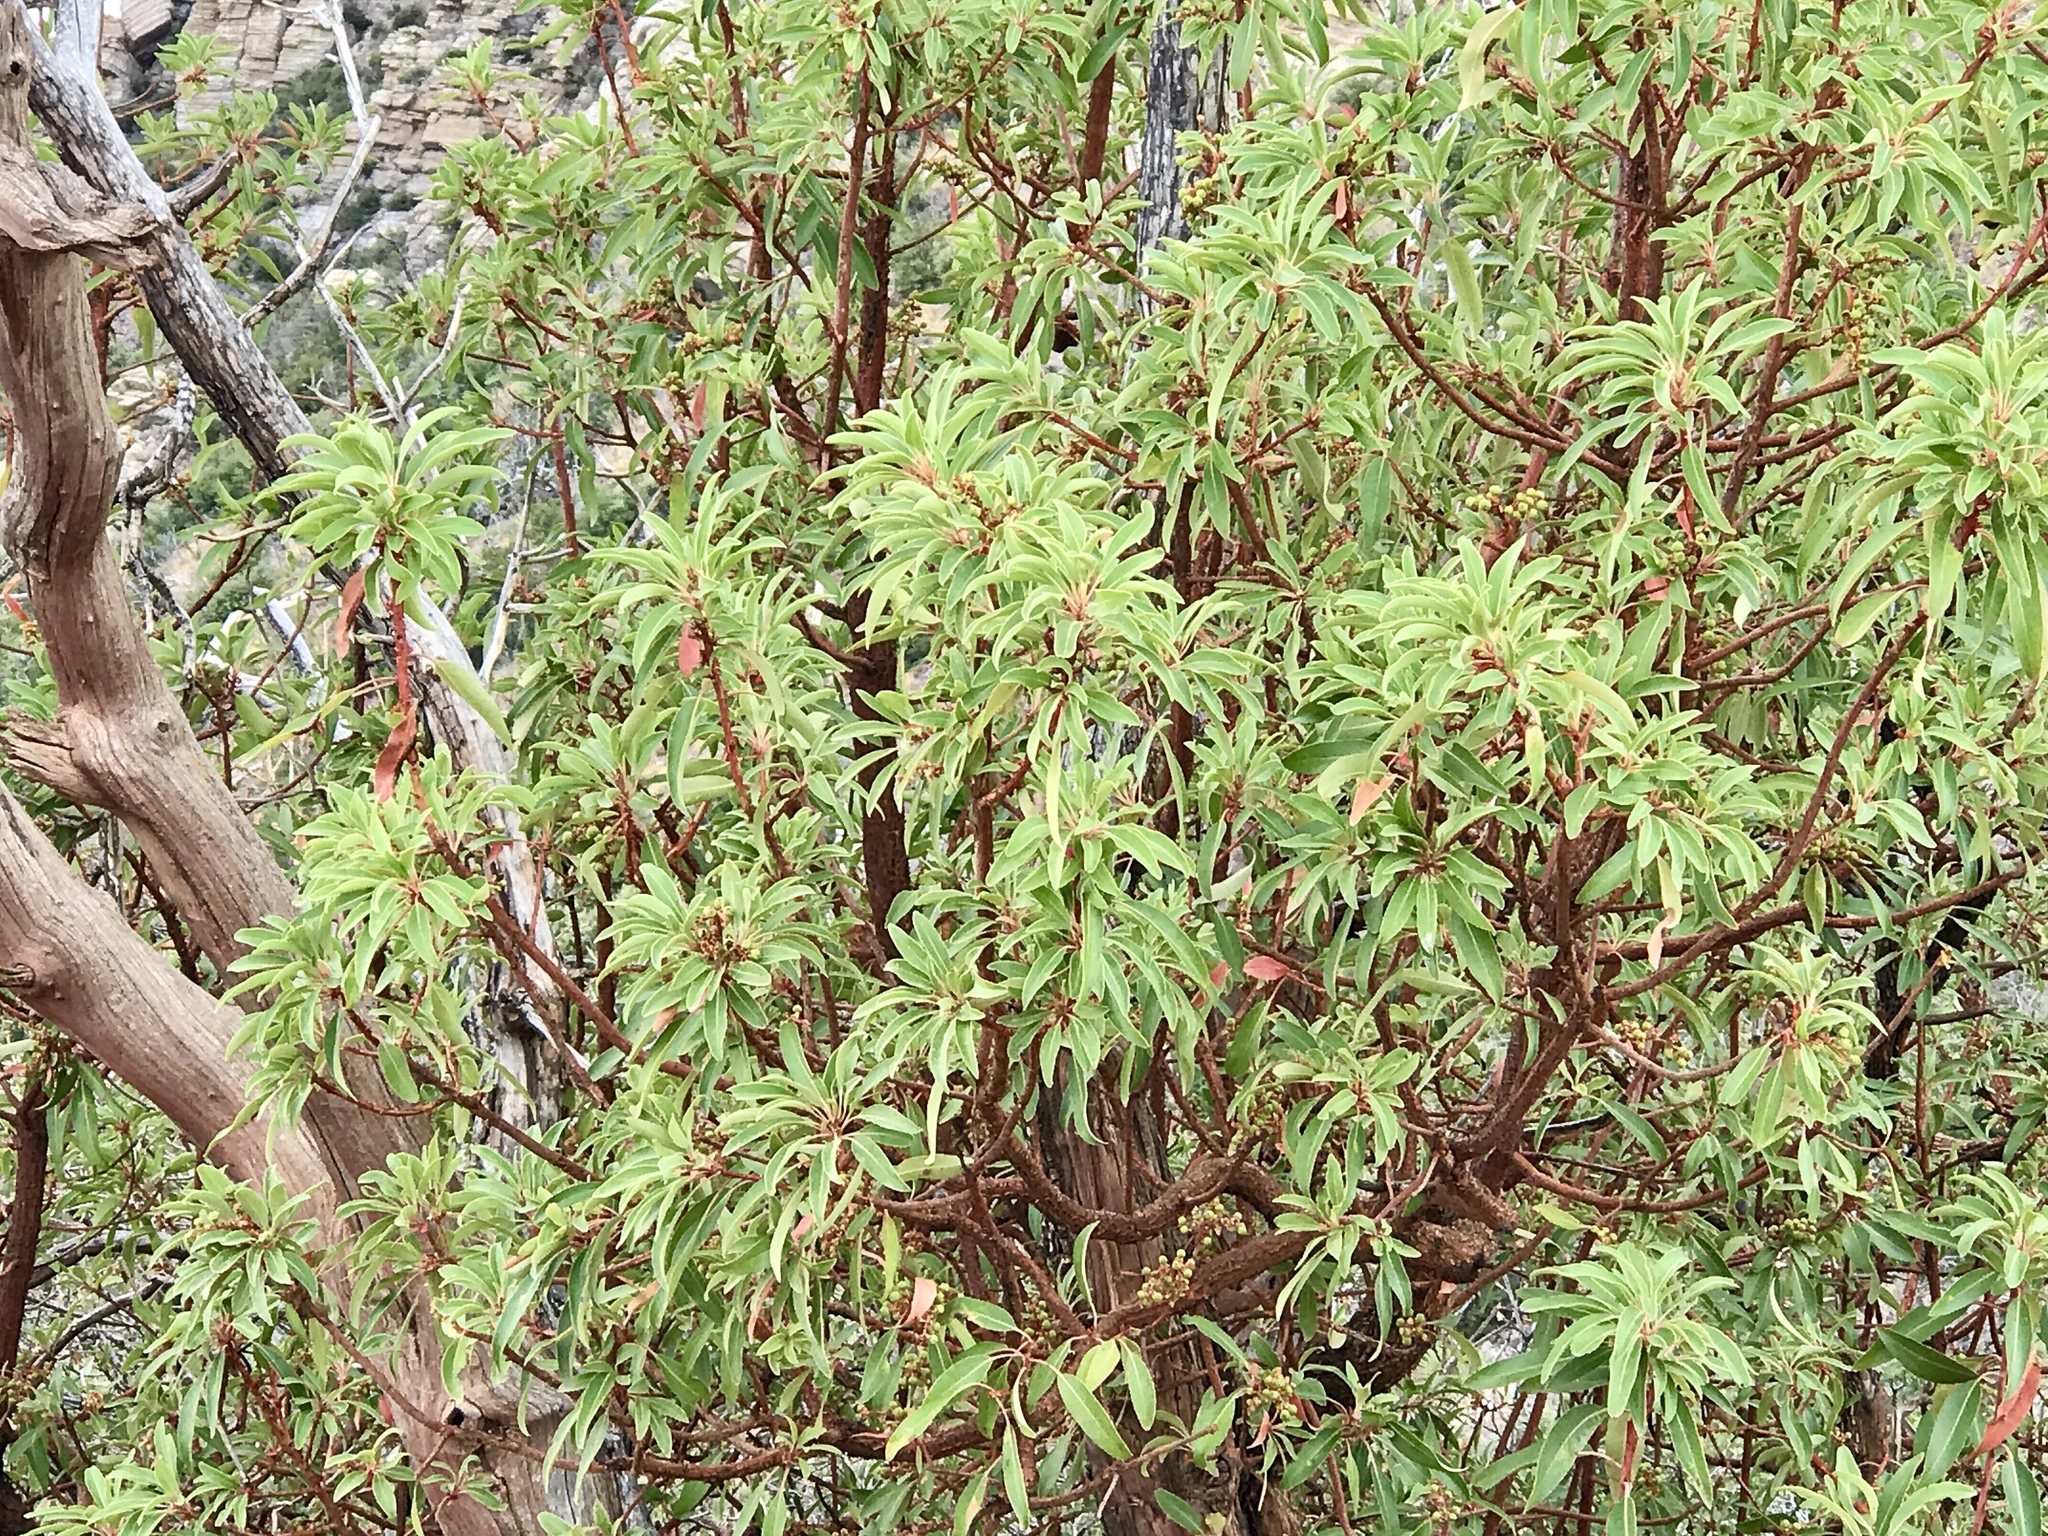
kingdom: Plantae
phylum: Tracheophyta
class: Magnoliopsida
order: Ericales
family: Ericaceae
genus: Arbutus
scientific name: Arbutus arizonica
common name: Arizona madrone
